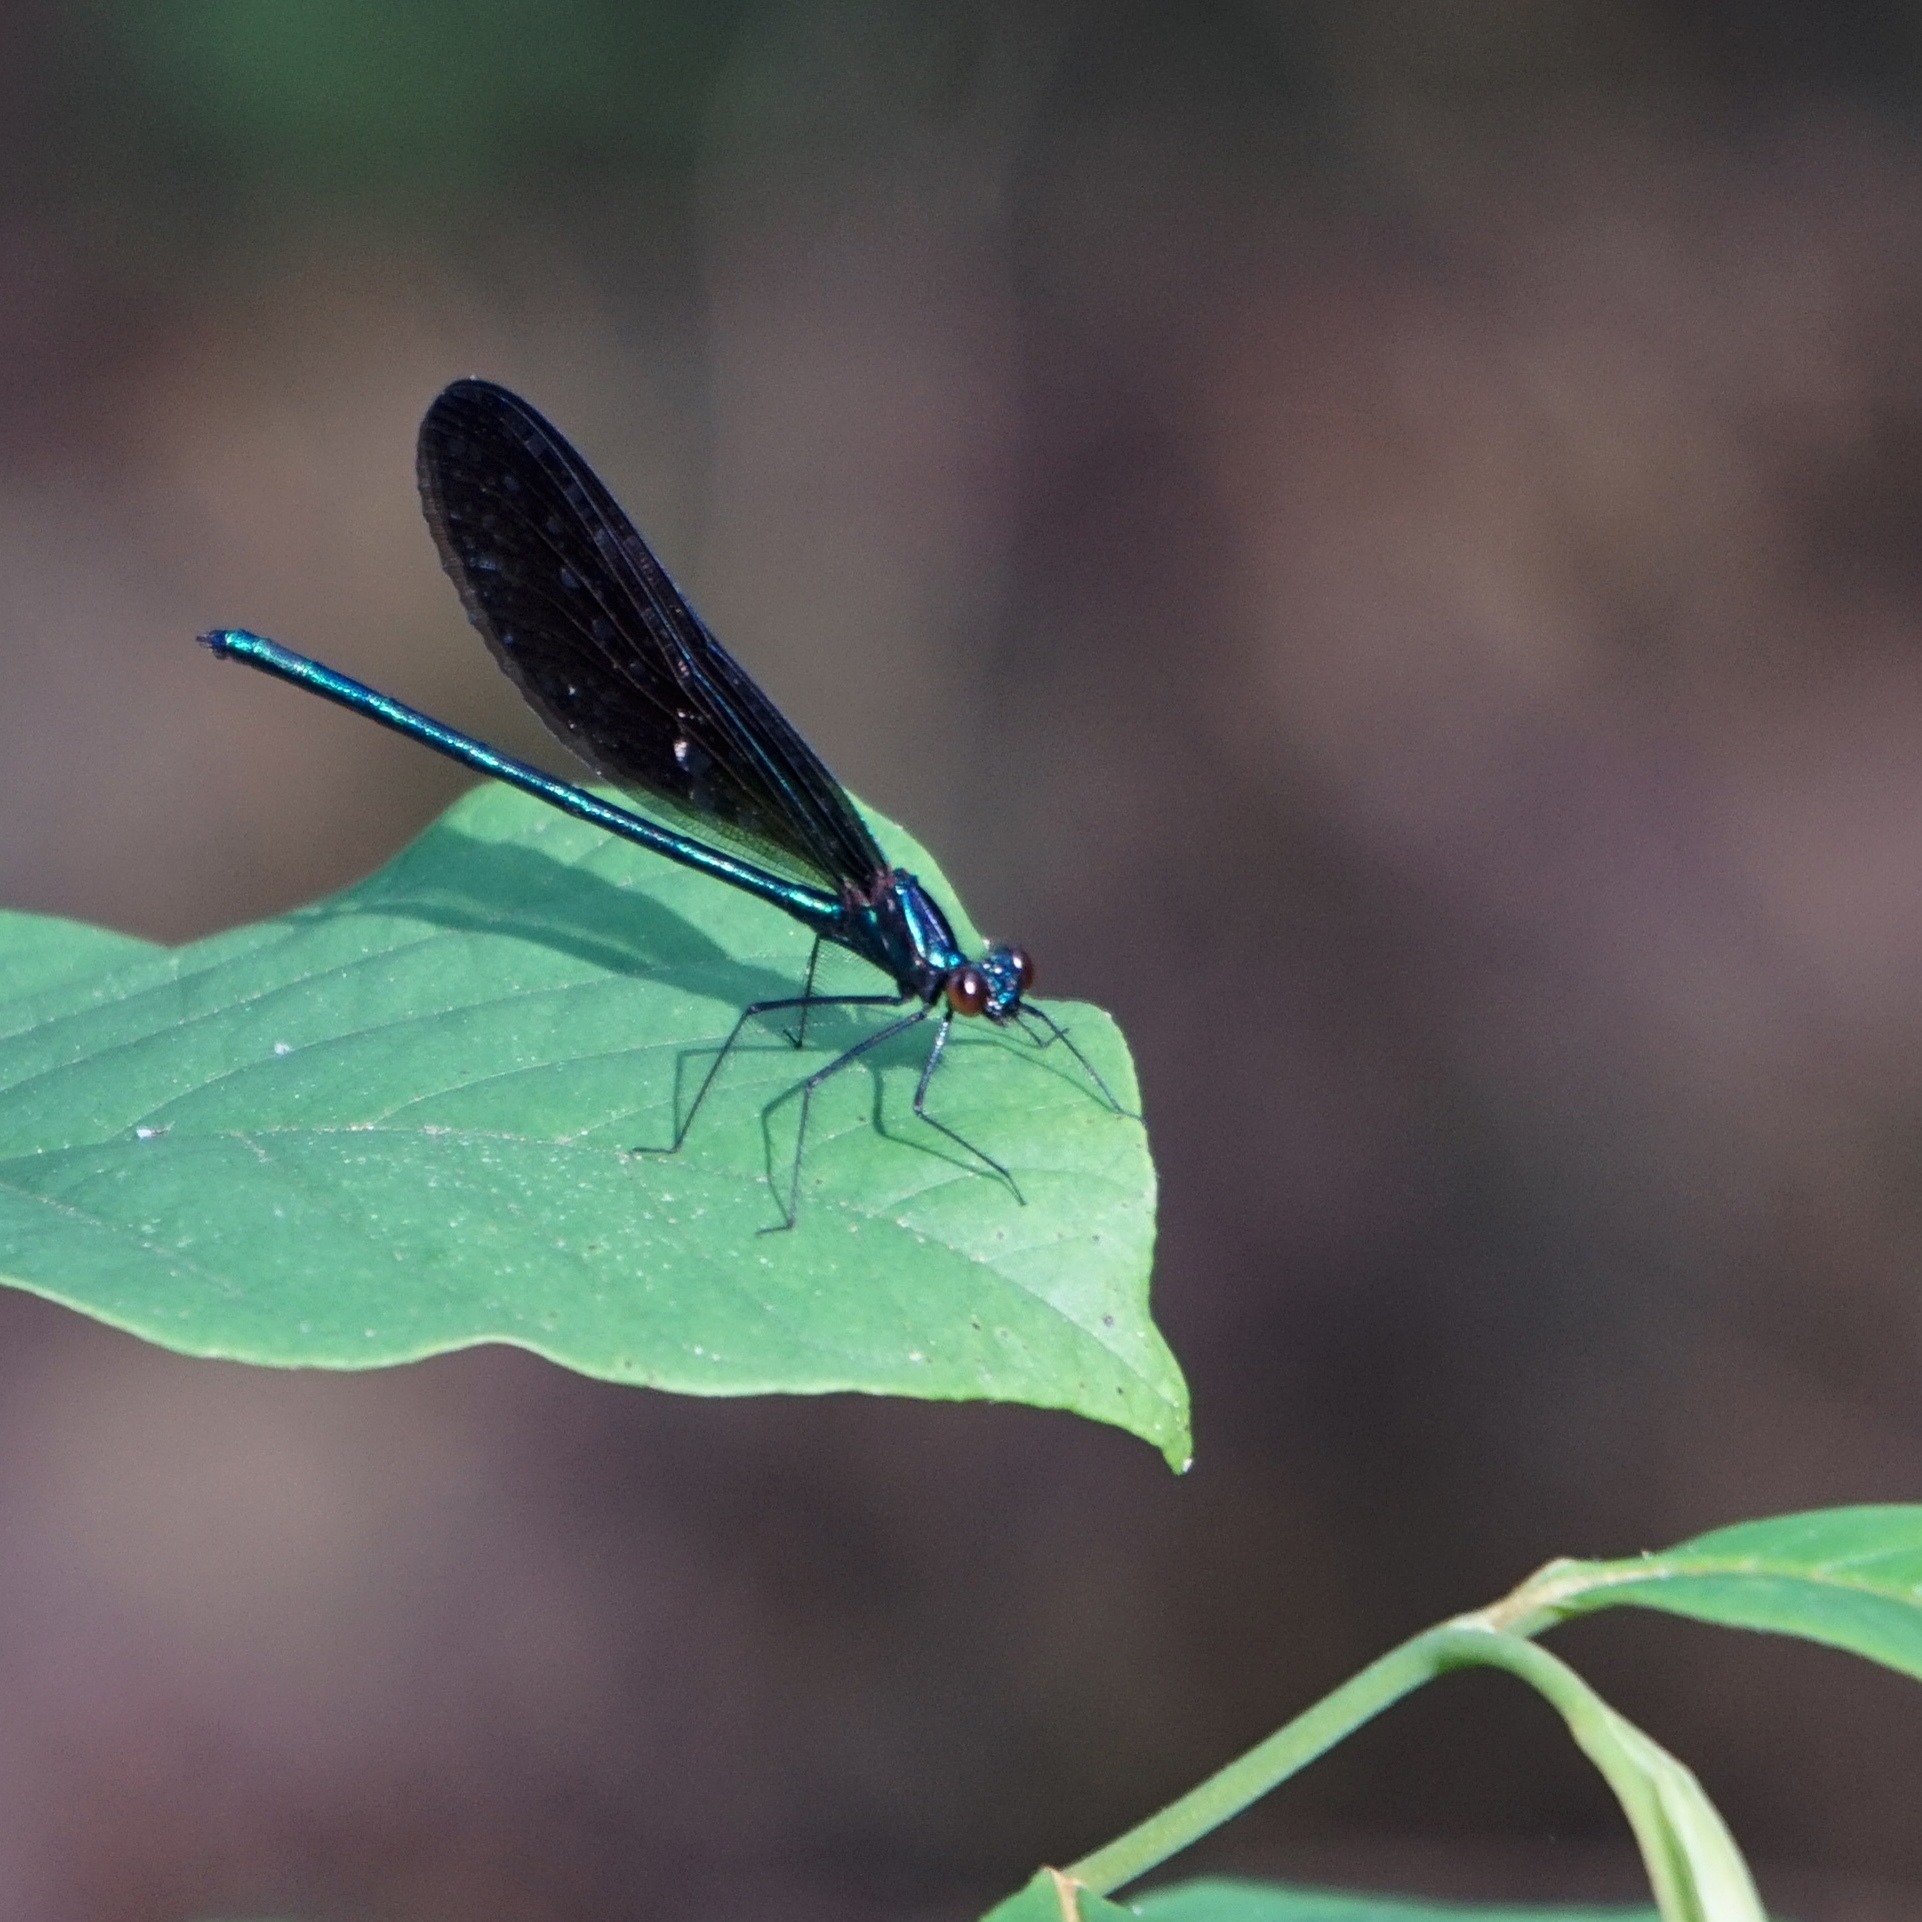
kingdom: Animalia
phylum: Arthropoda
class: Insecta
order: Odonata
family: Calopterygidae
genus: Calopteryx
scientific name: Calopteryx maculata
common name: Ebony jewelwing
